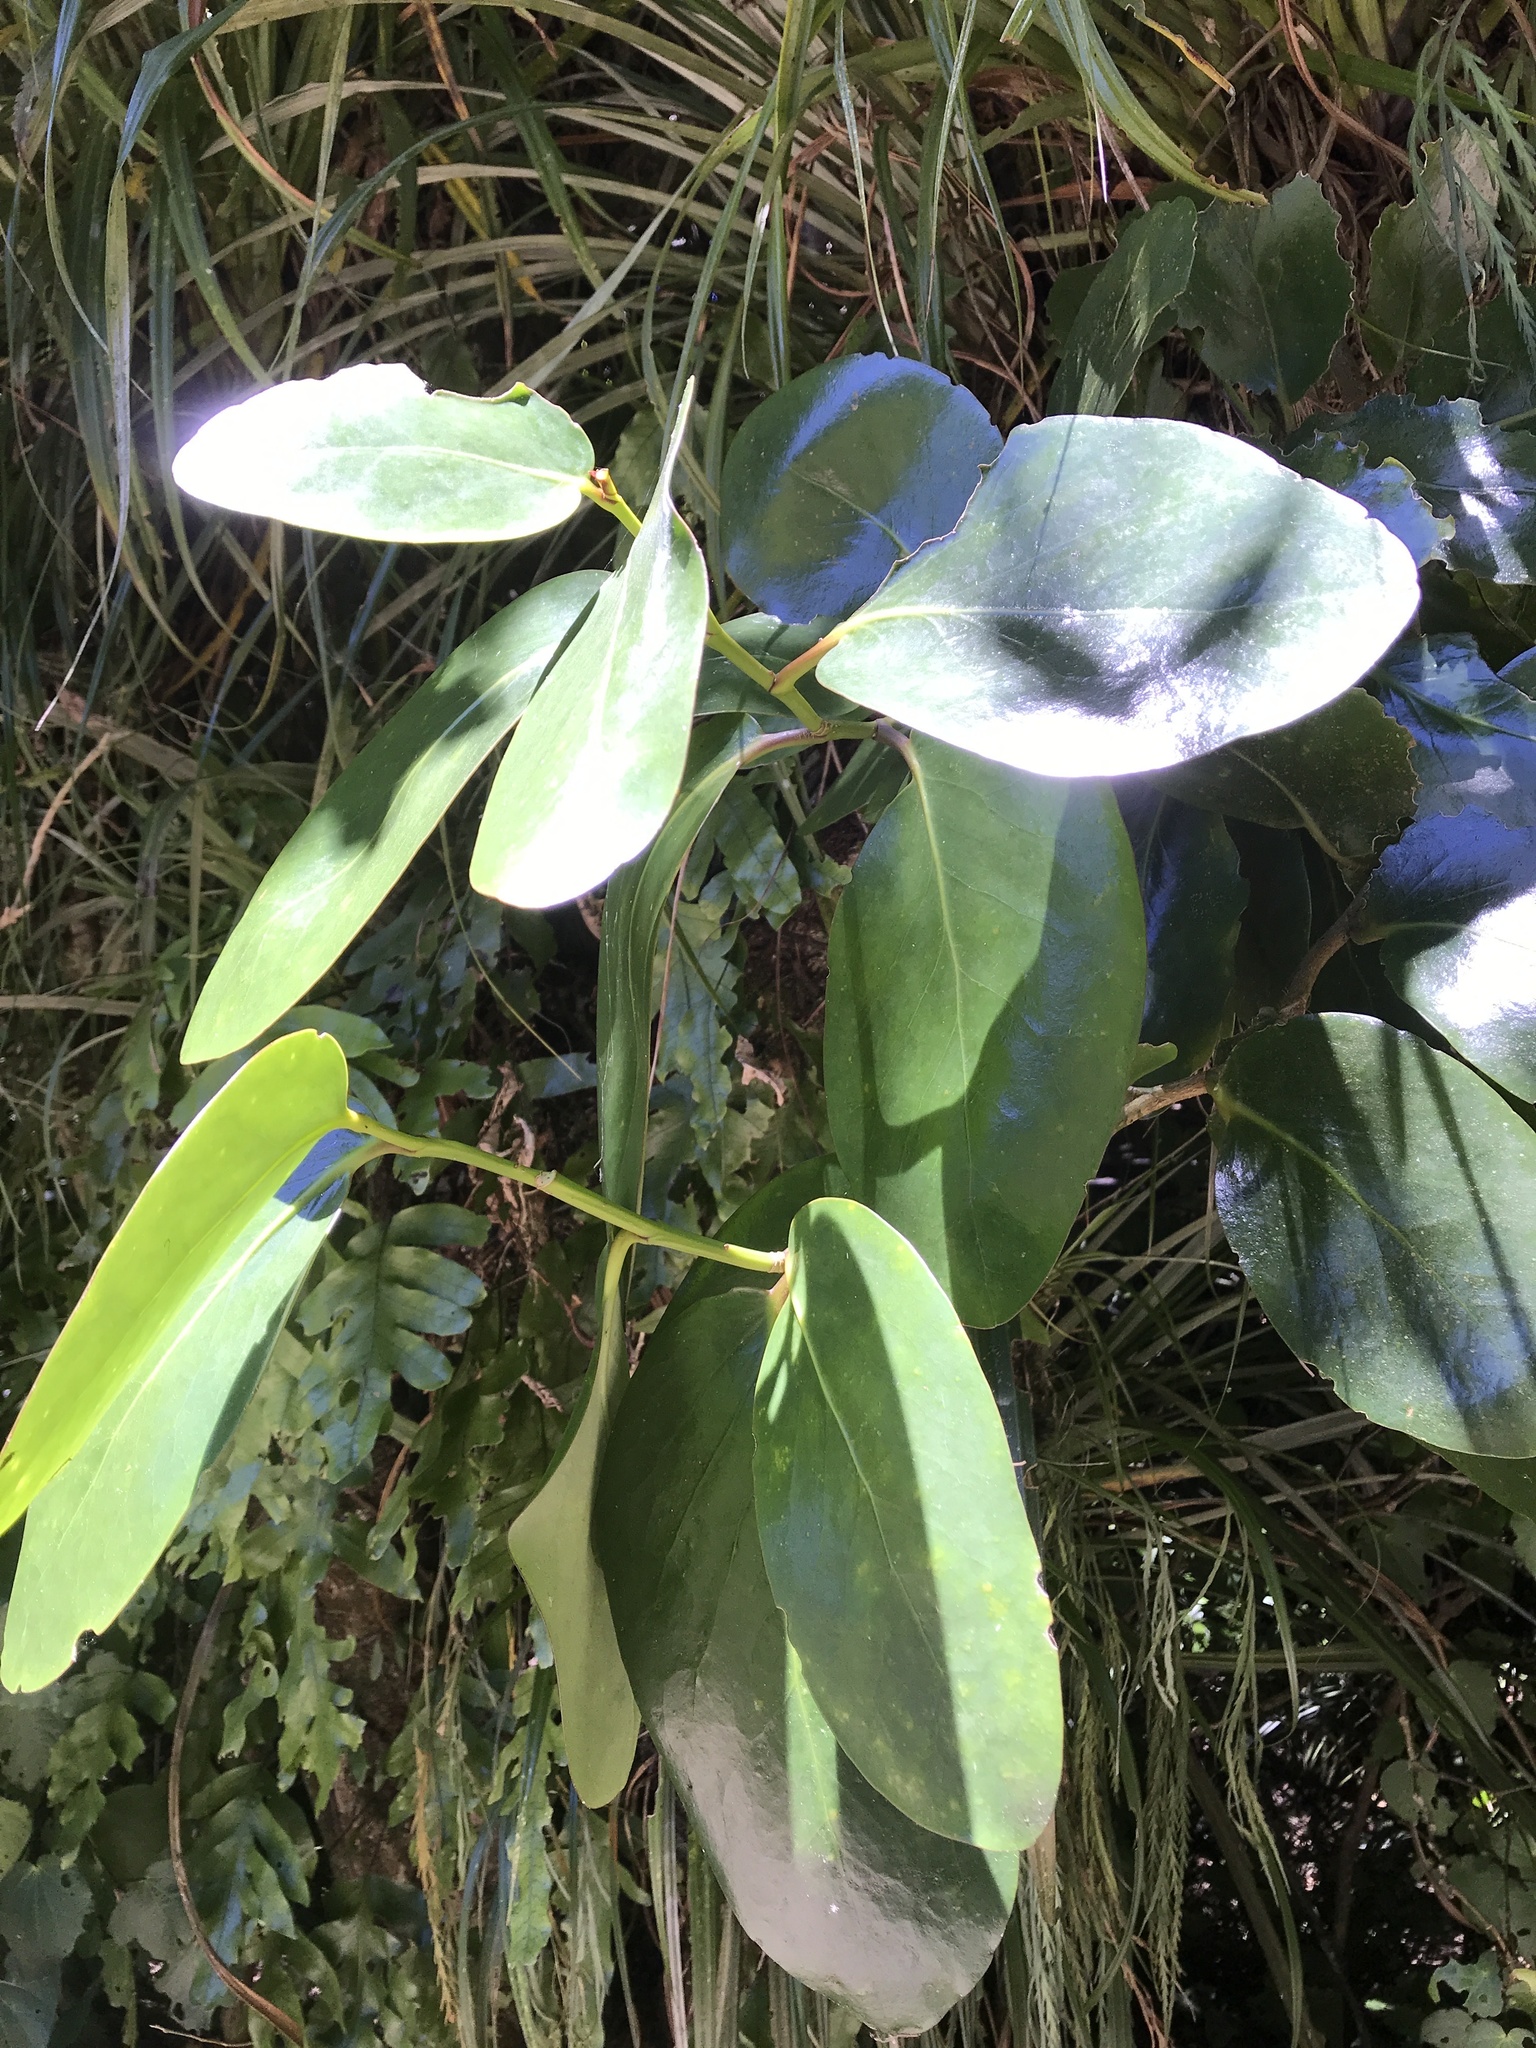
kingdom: Plantae
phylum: Tracheophyta
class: Magnoliopsida
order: Apiales
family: Griseliniaceae
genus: Griselinia
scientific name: Griselinia lucida
